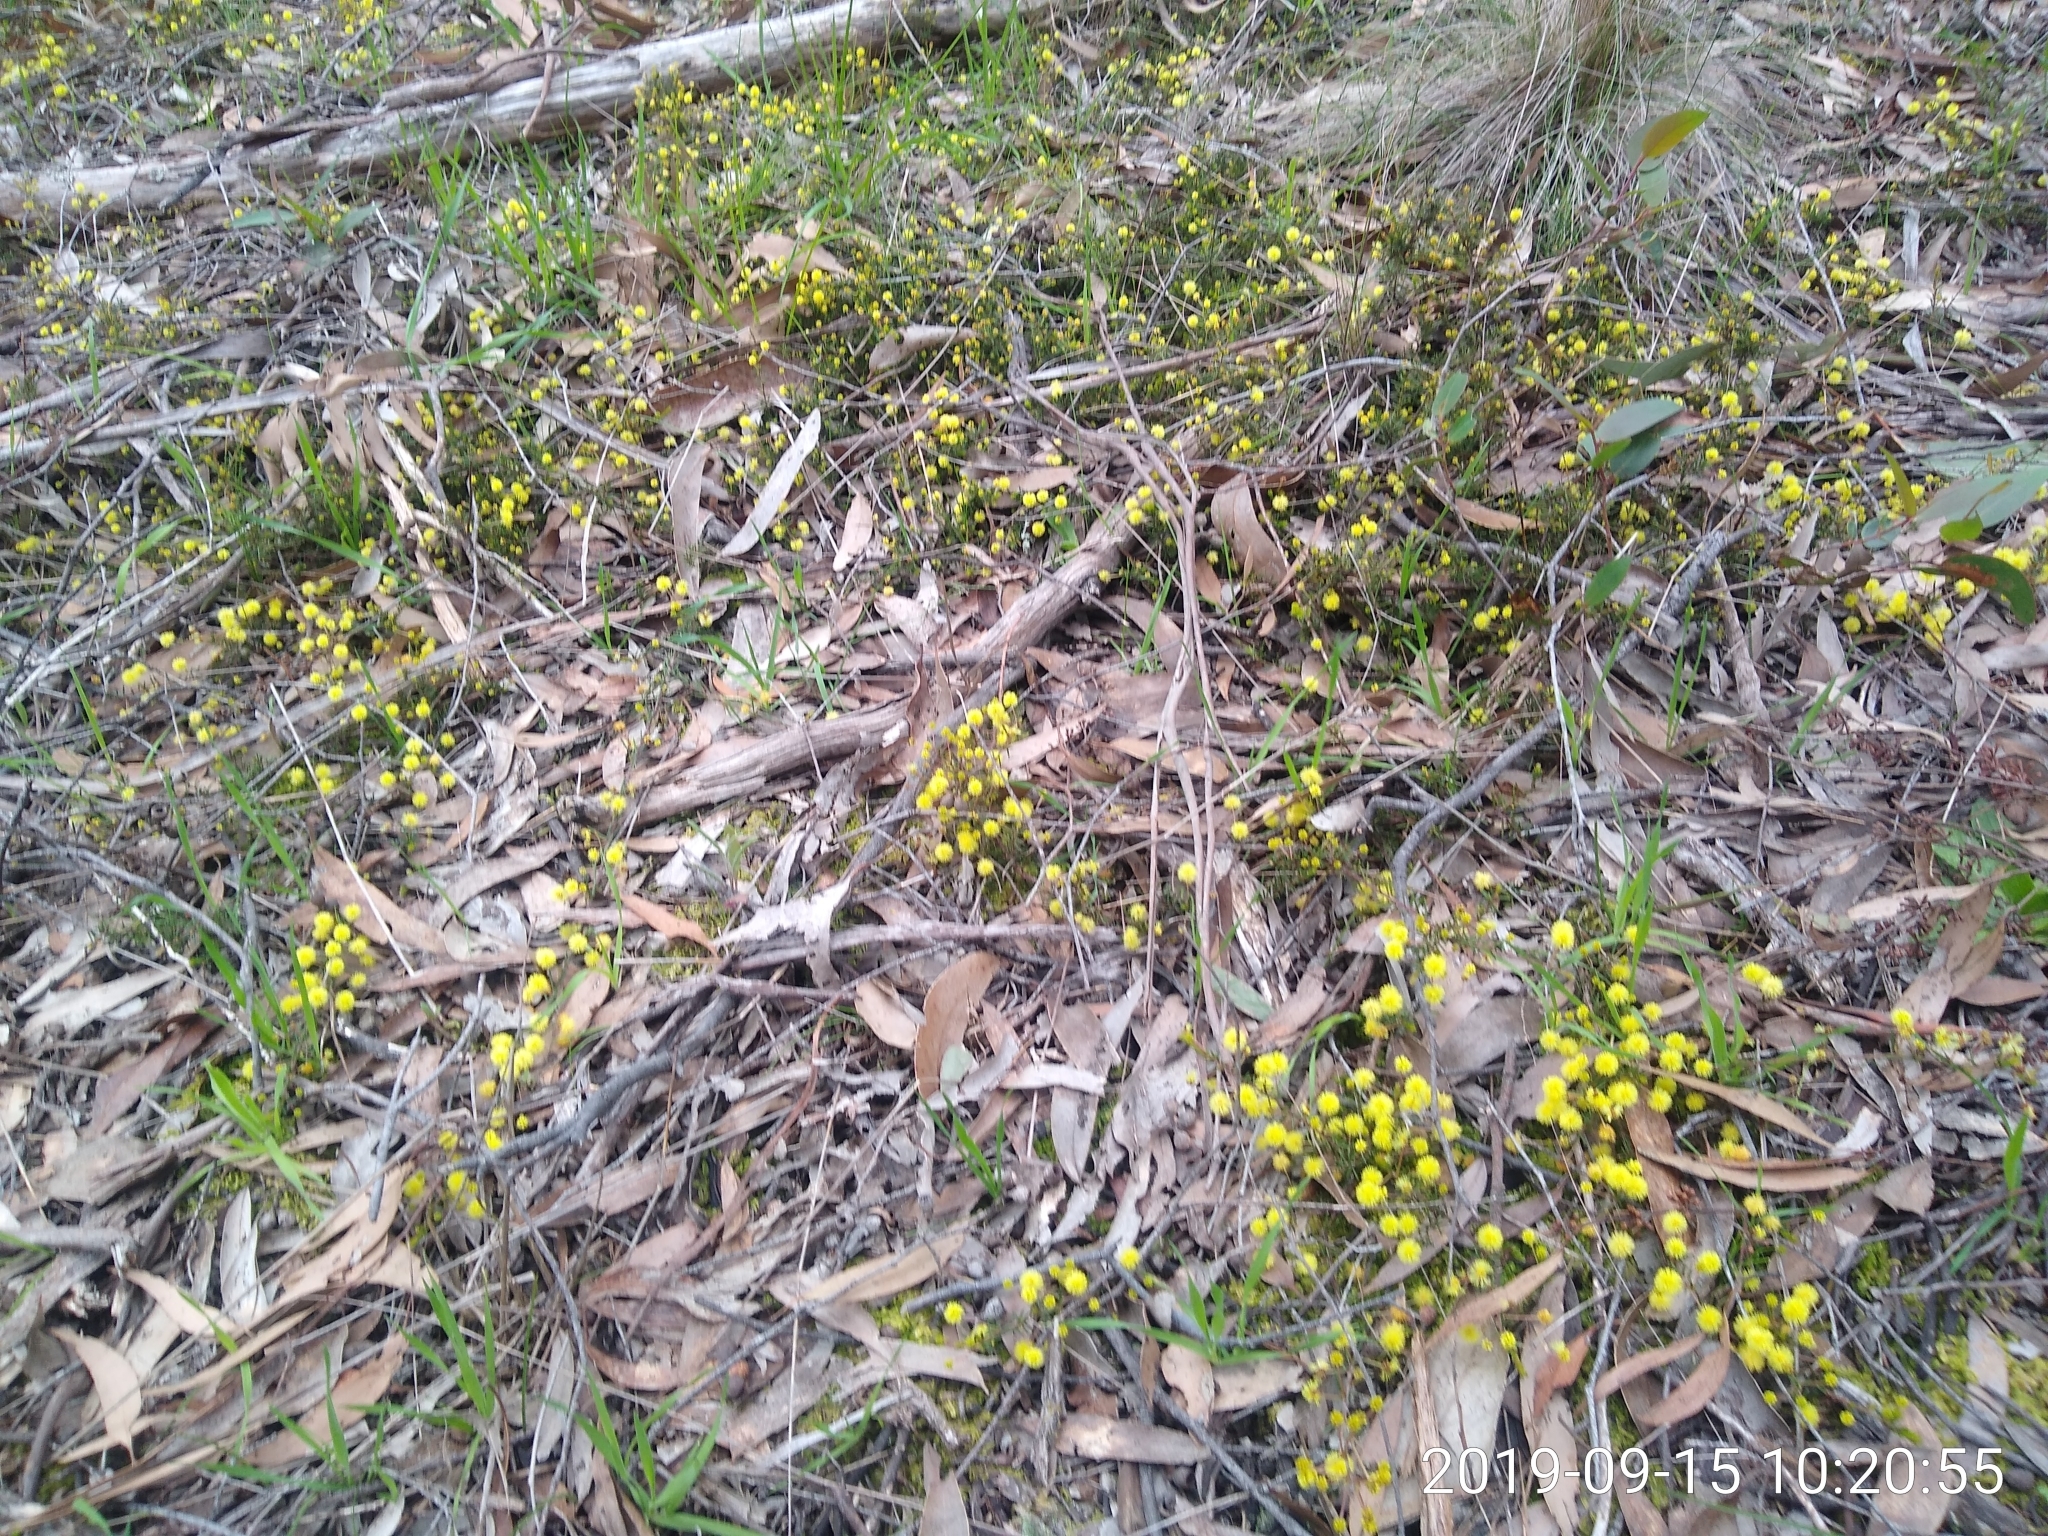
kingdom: Plantae
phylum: Tracheophyta
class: Magnoliopsida
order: Fabales
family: Fabaceae
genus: Acacia
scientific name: Acacia aculeatissima
